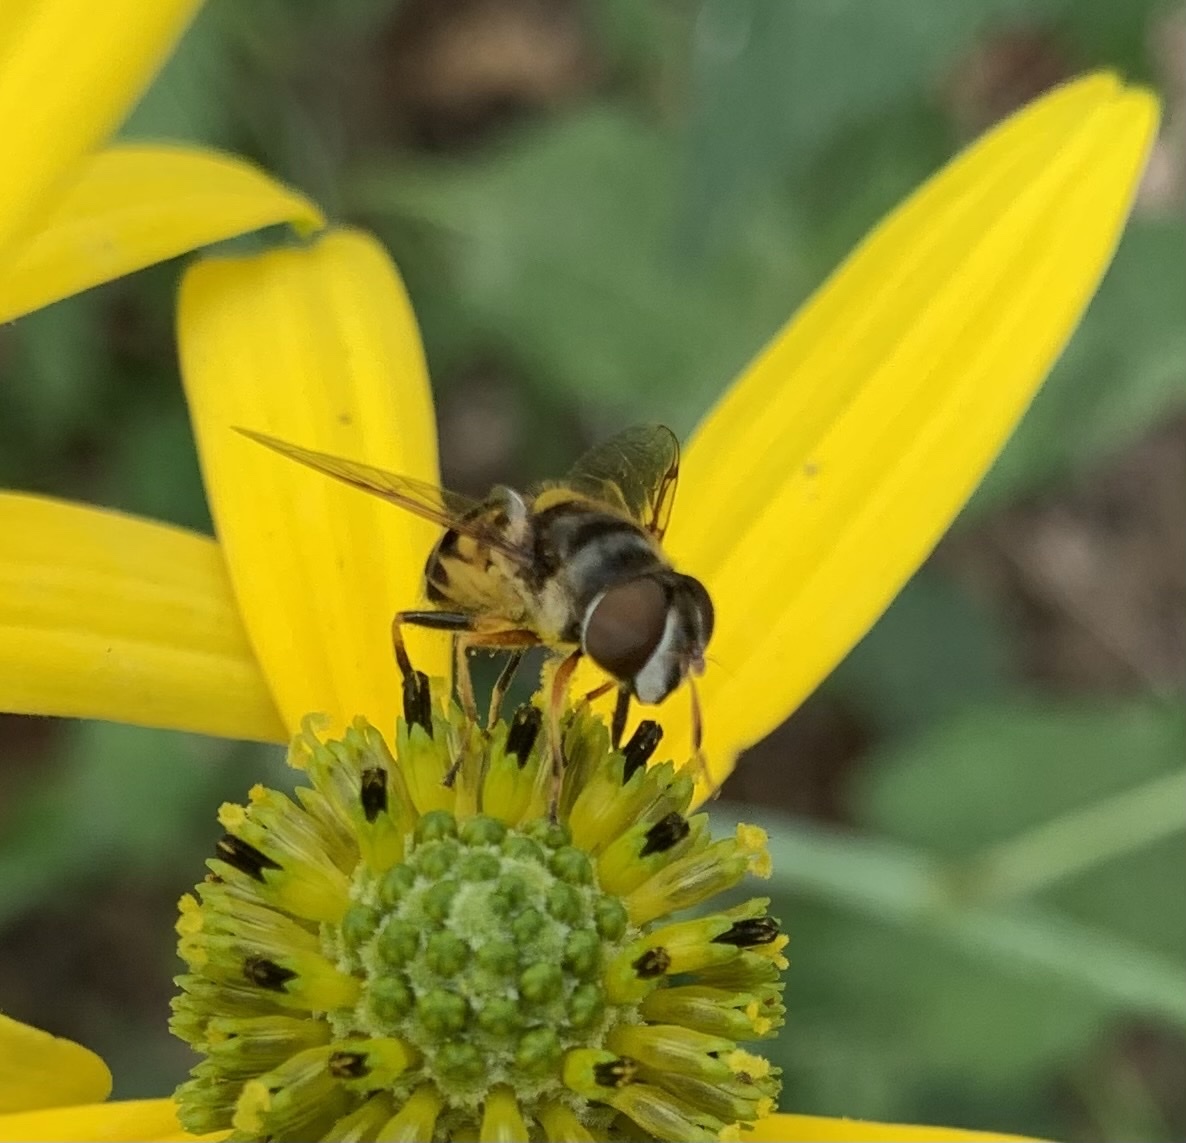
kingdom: Animalia
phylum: Arthropoda
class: Insecta
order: Diptera
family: Syrphidae
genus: Eristalis
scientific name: Eristalis transversa
